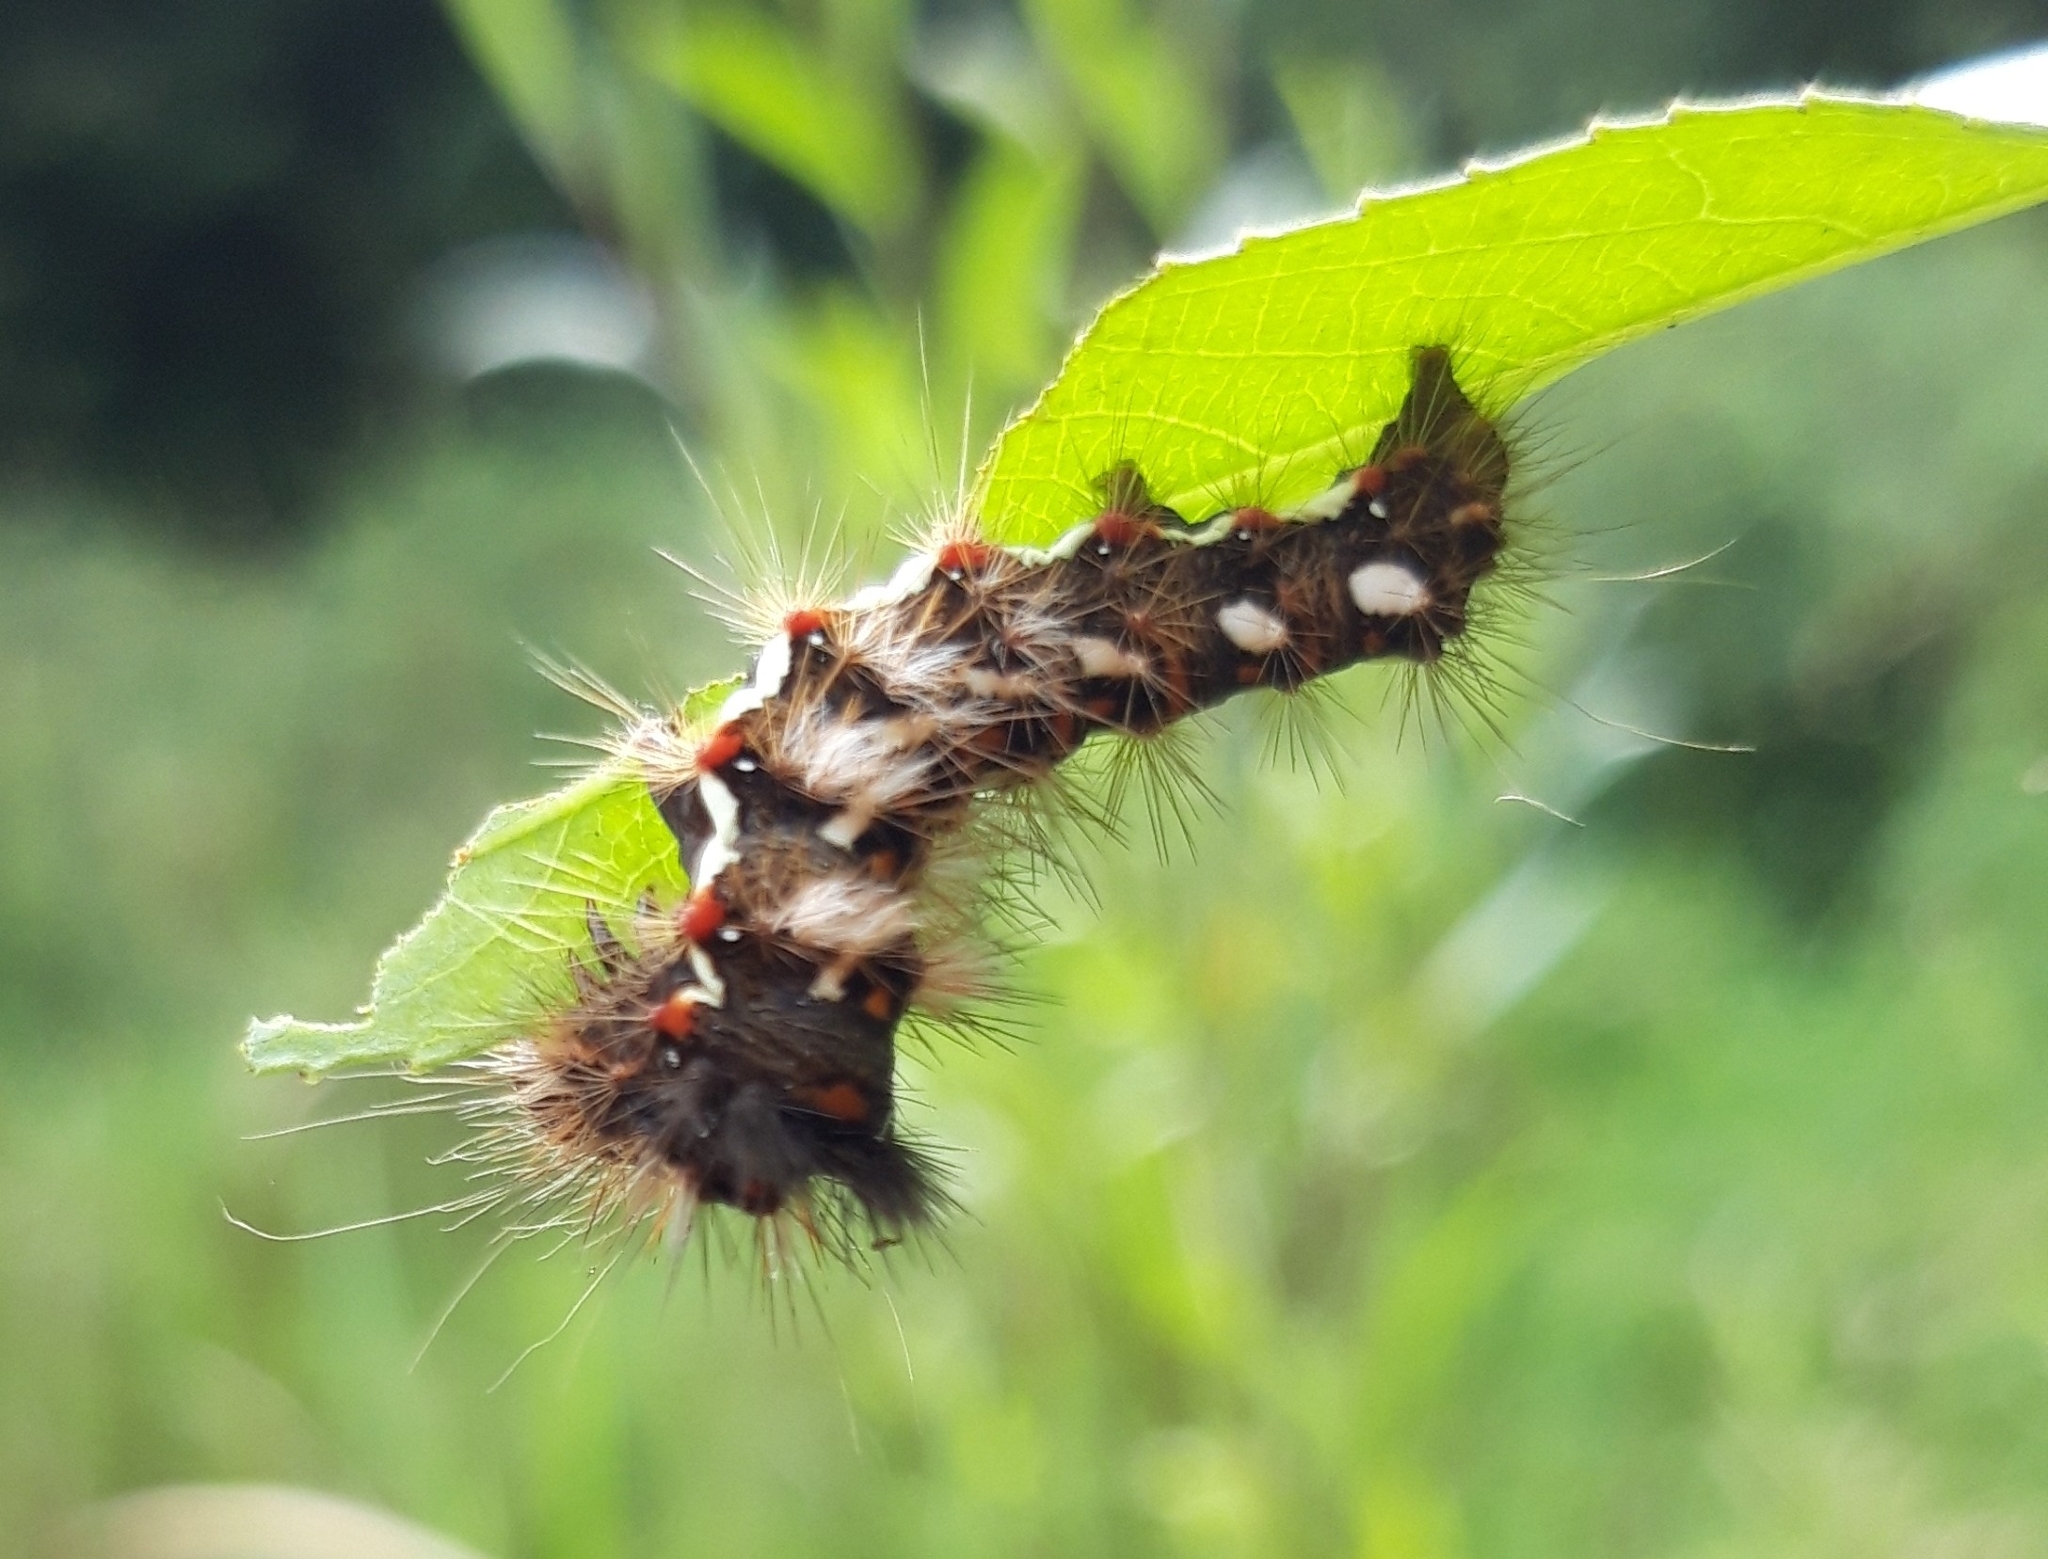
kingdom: Animalia
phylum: Arthropoda
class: Insecta
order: Lepidoptera
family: Noctuidae
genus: Acronicta
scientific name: Acronicta rumicis
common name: Knot grass
